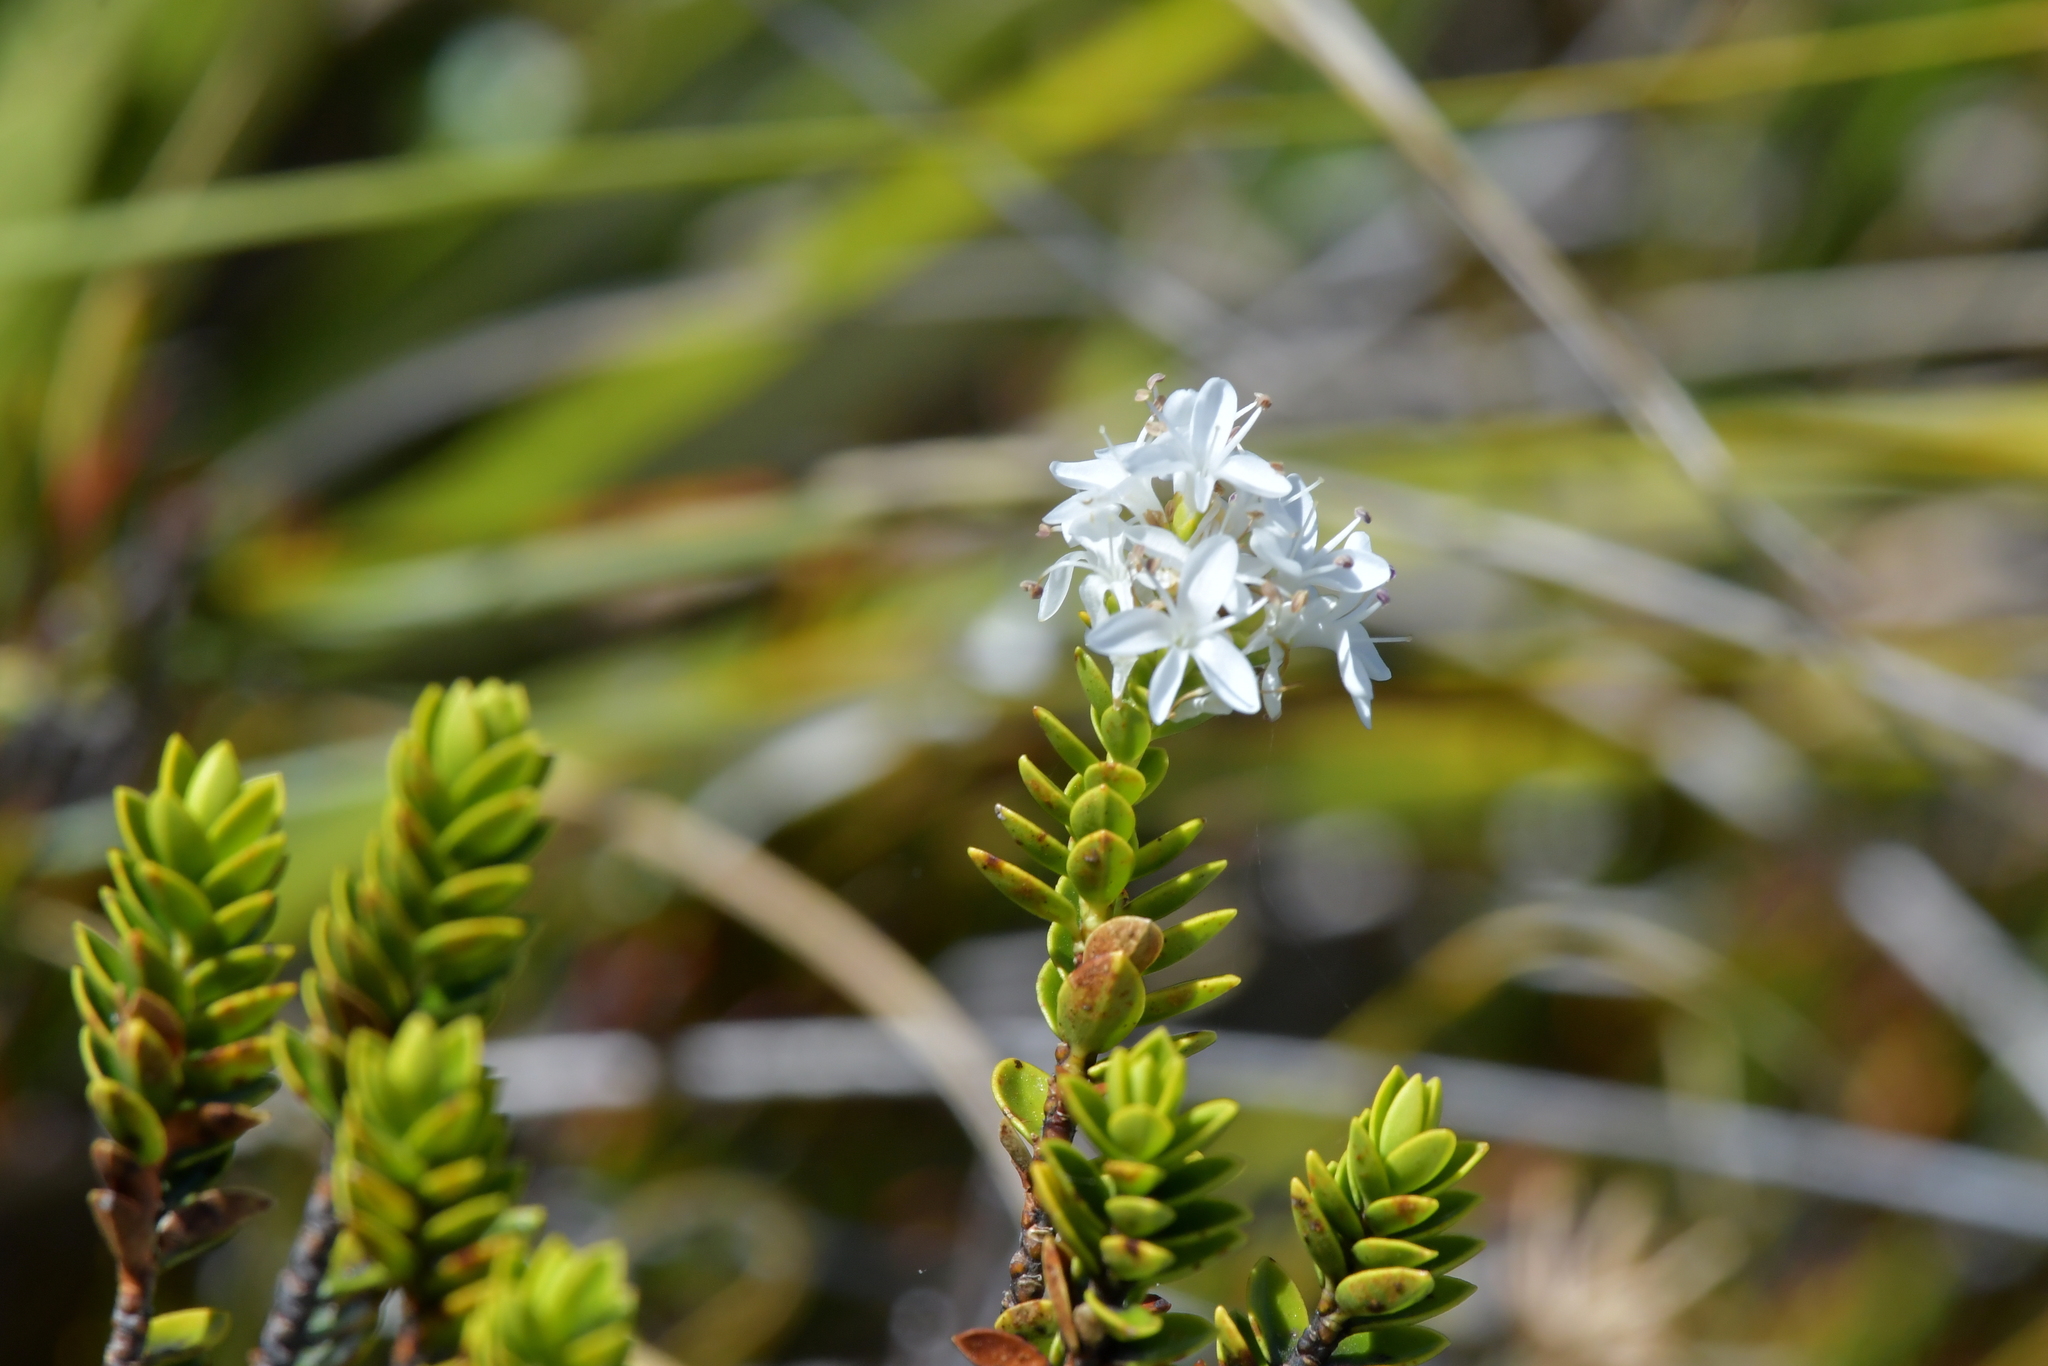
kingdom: Plantae
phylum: Tracheophyta
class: Magnoliopsida
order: Lamiales
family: Plantaginaceae
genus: Veronica
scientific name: Veronica odora
